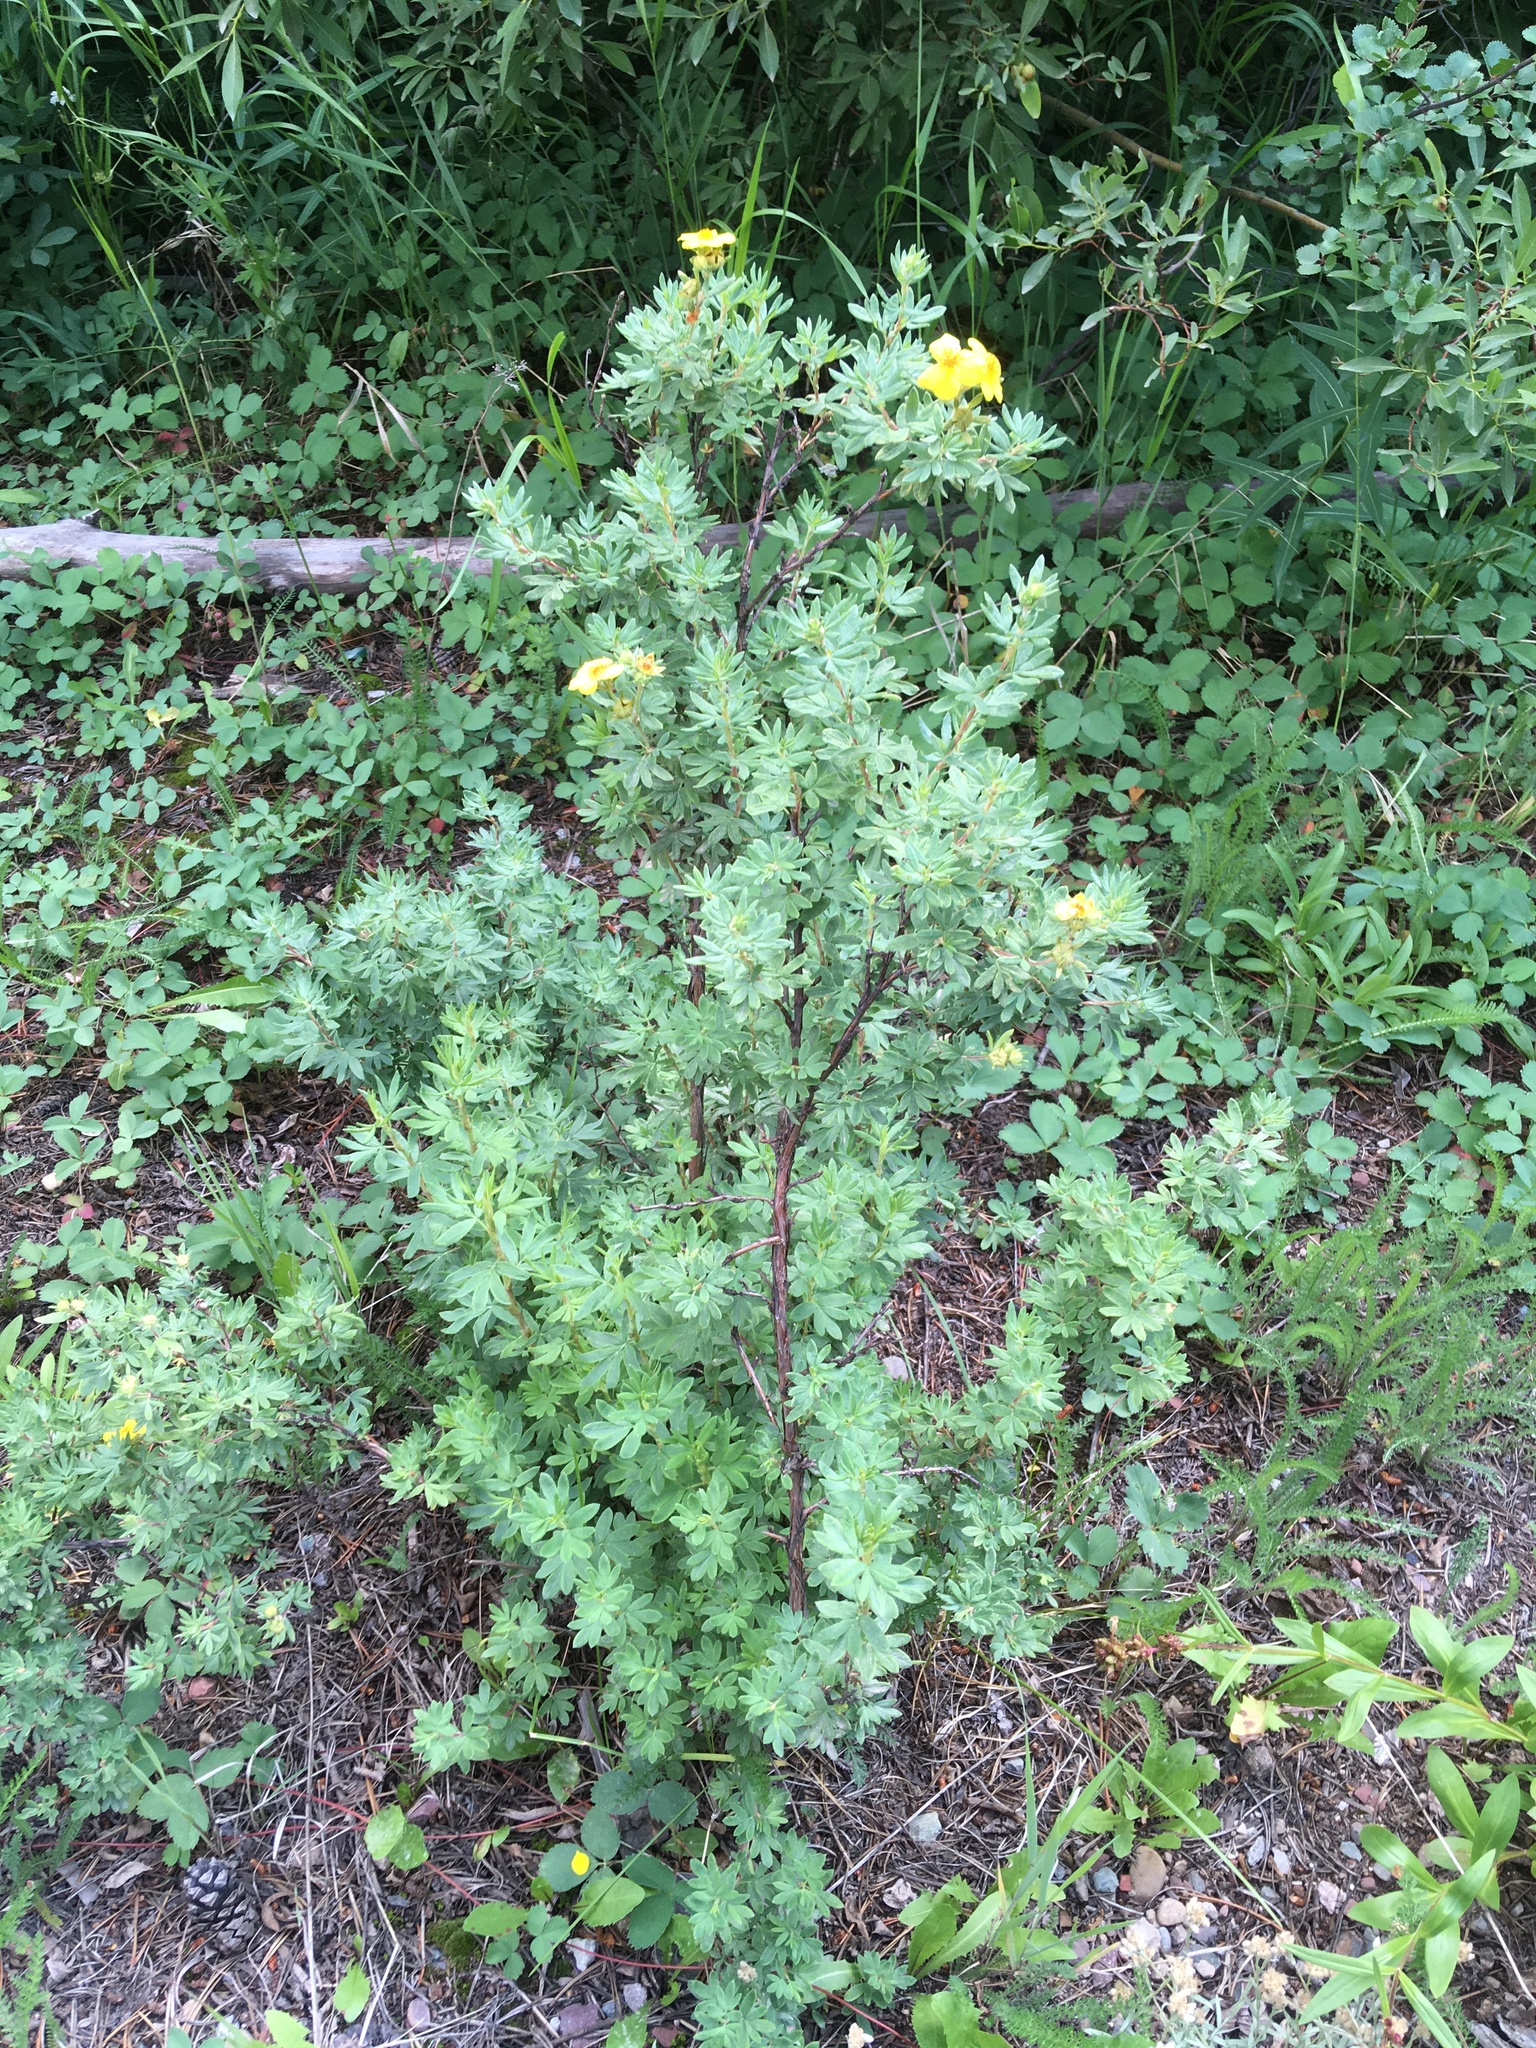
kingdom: Plantae
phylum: Tracheophyta
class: Magnoliopsida
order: Rosales
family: Rosaceae
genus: Dasiphora
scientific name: Dasiphora fruticosa
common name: Shrubby cinquefoil
